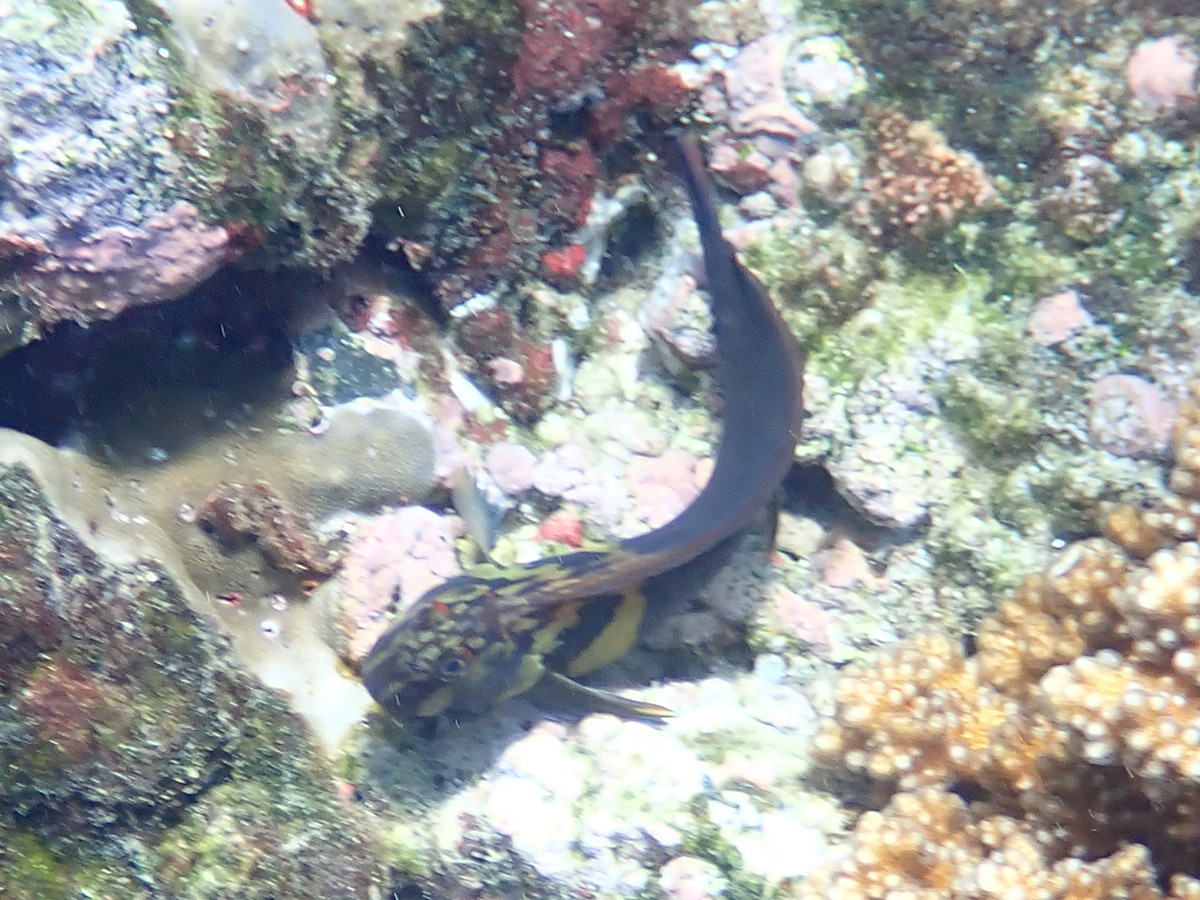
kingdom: Animalia
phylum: Chordata
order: Perciformes
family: Blenniidae
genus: Ophioblennius
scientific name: Ophioblennius steindachneri
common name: Panamic fanged blenny
